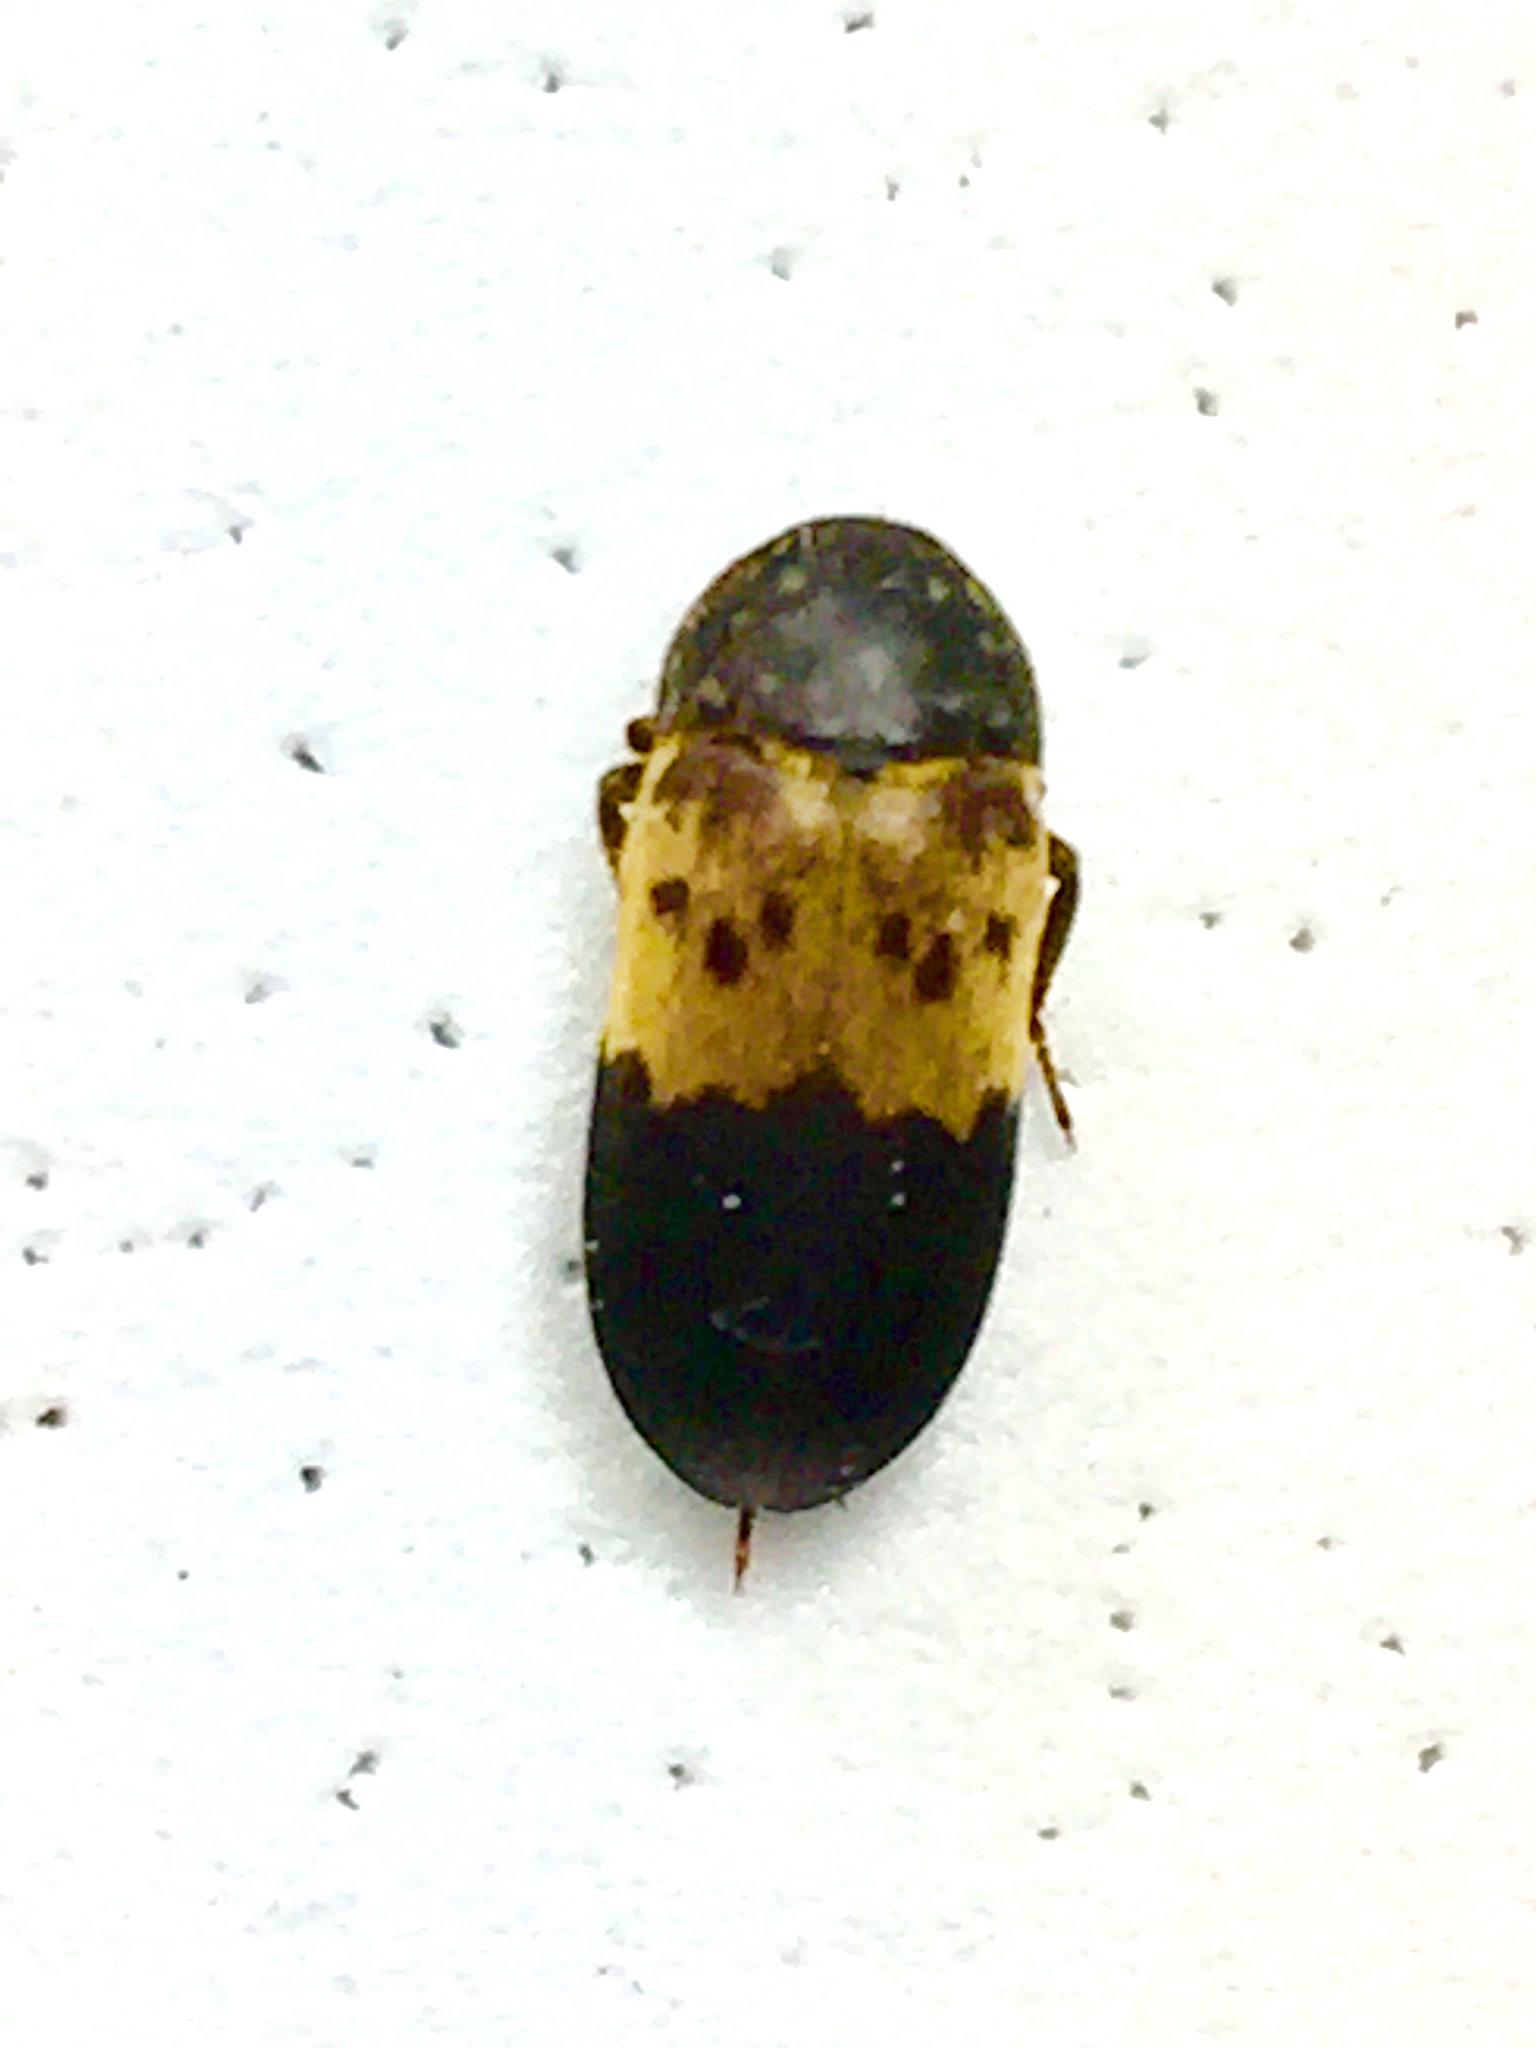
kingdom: Animalia
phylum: Arthropoda
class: Insecta
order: Coleoptera
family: Dermestidae
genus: Dermestes
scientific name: Dermestes lardarius
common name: Larder beetle
